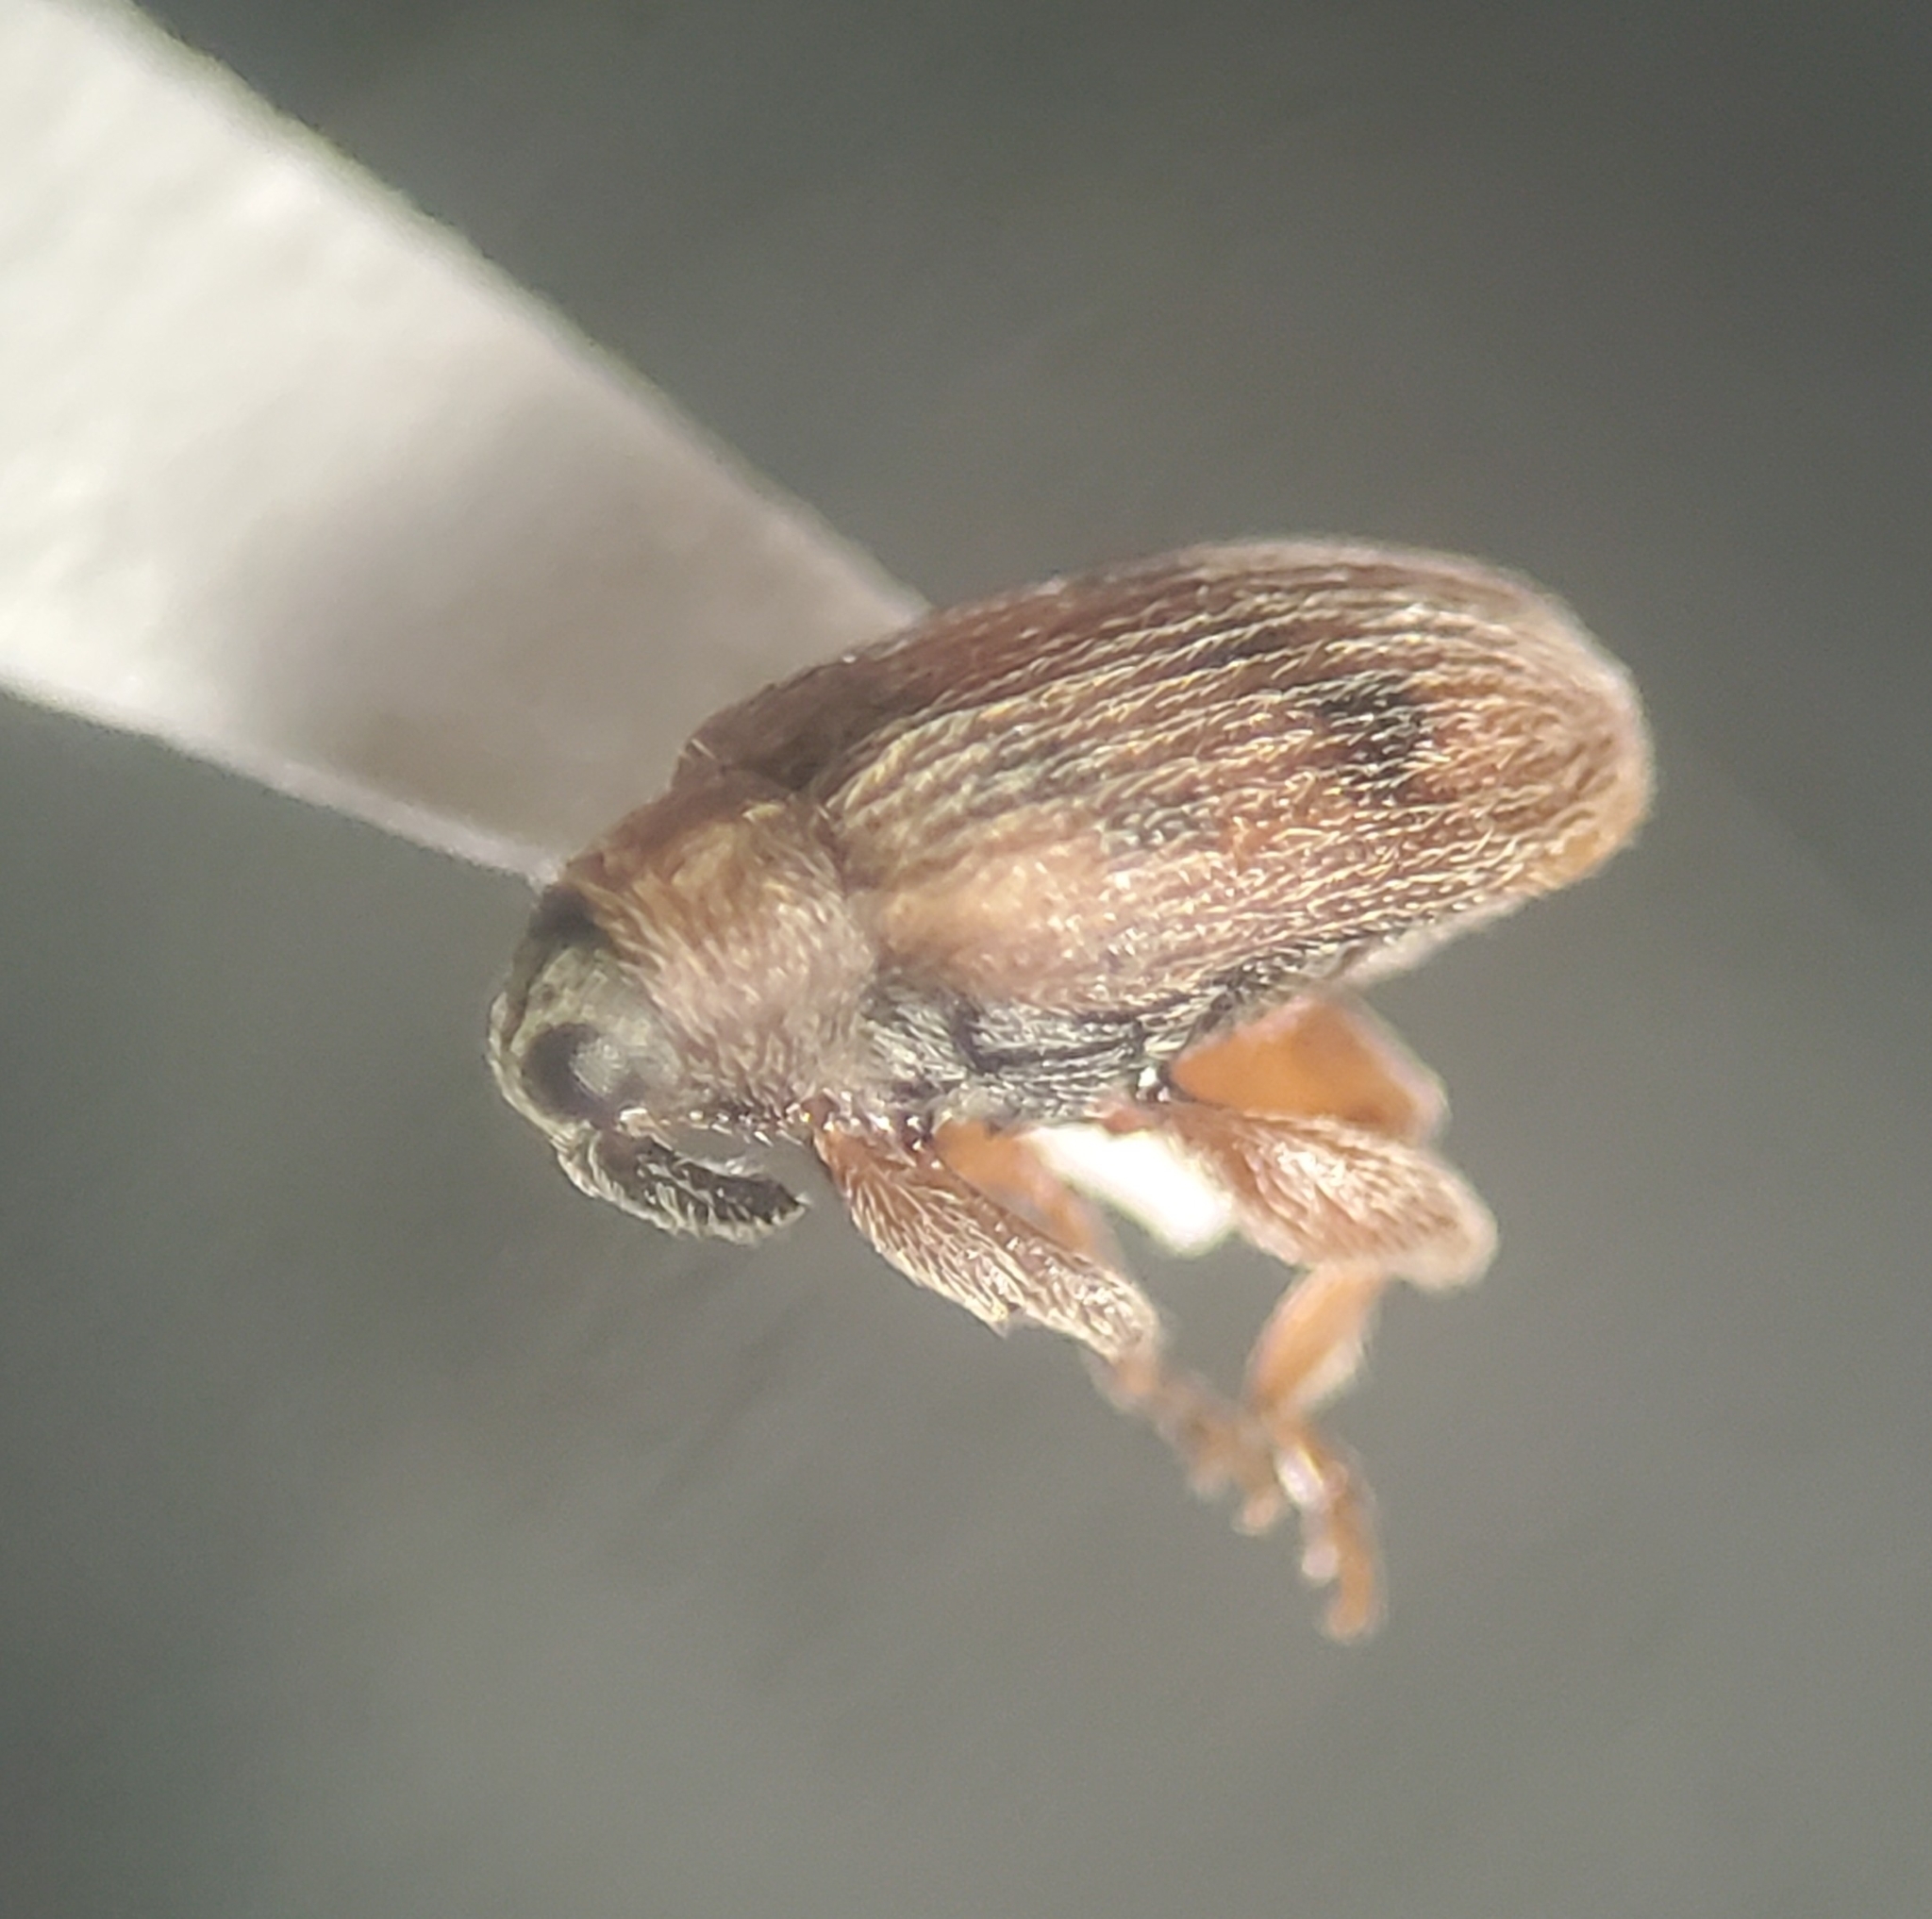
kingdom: Animalia
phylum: Arthropoda
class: Insecta
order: Coleoptera
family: Curculionidae
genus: Orchestes
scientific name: Orchestes steppensis
